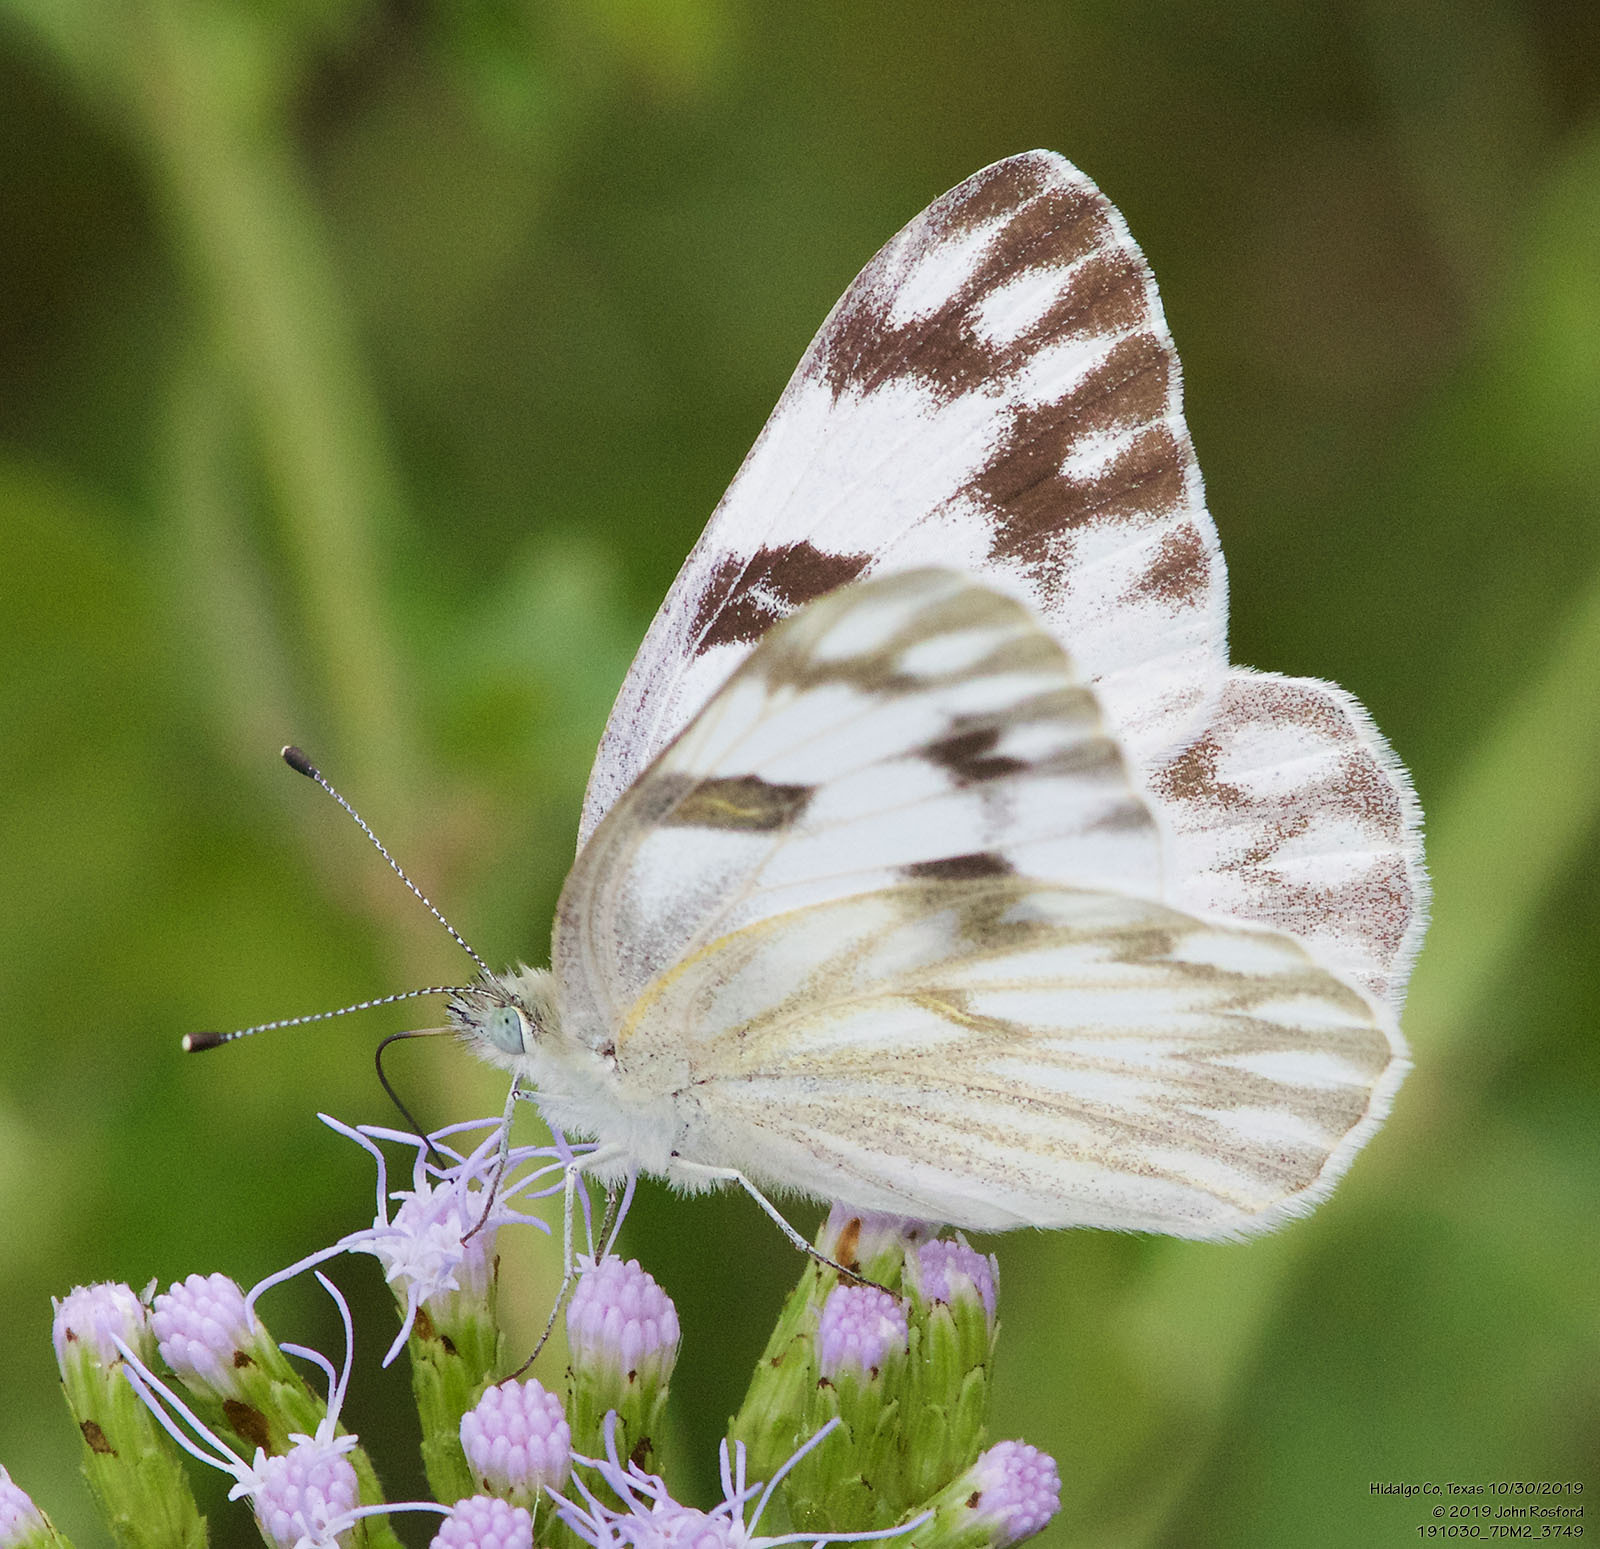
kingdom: Animalia
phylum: Arthropoda
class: Insecta
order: Lepidoptera
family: Pieridae
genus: Pontia
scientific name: Pontia protodice
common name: Checkered white
